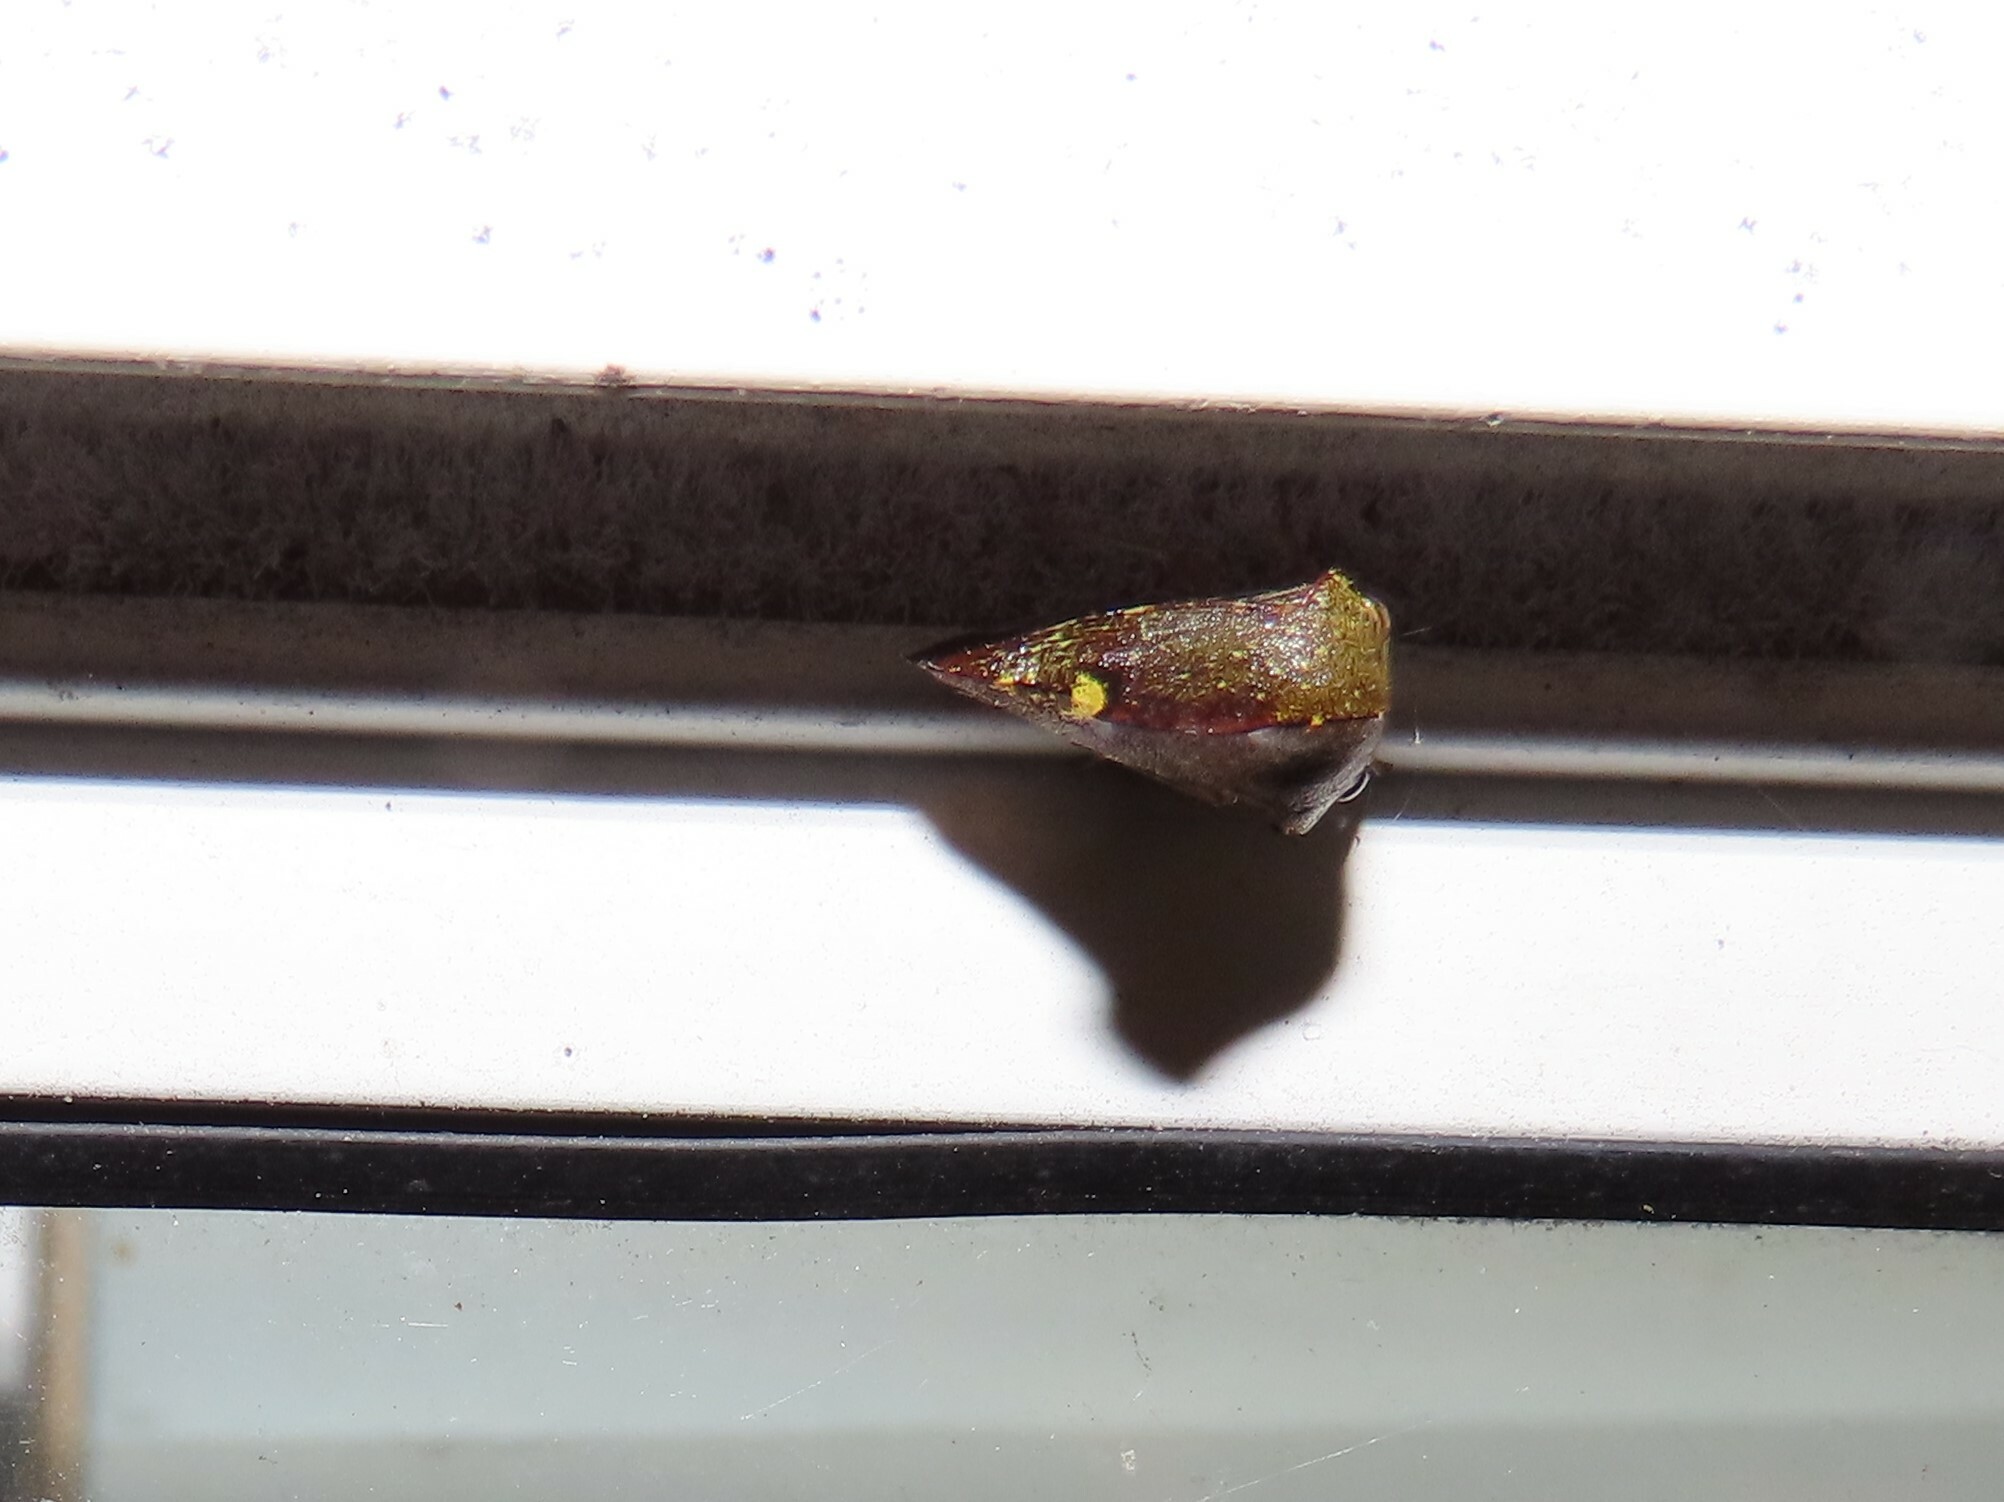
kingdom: Animalia
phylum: Arthropoda
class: Insecta
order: Hemiptera
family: Membracidae
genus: Telamona
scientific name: Telamona monticola
